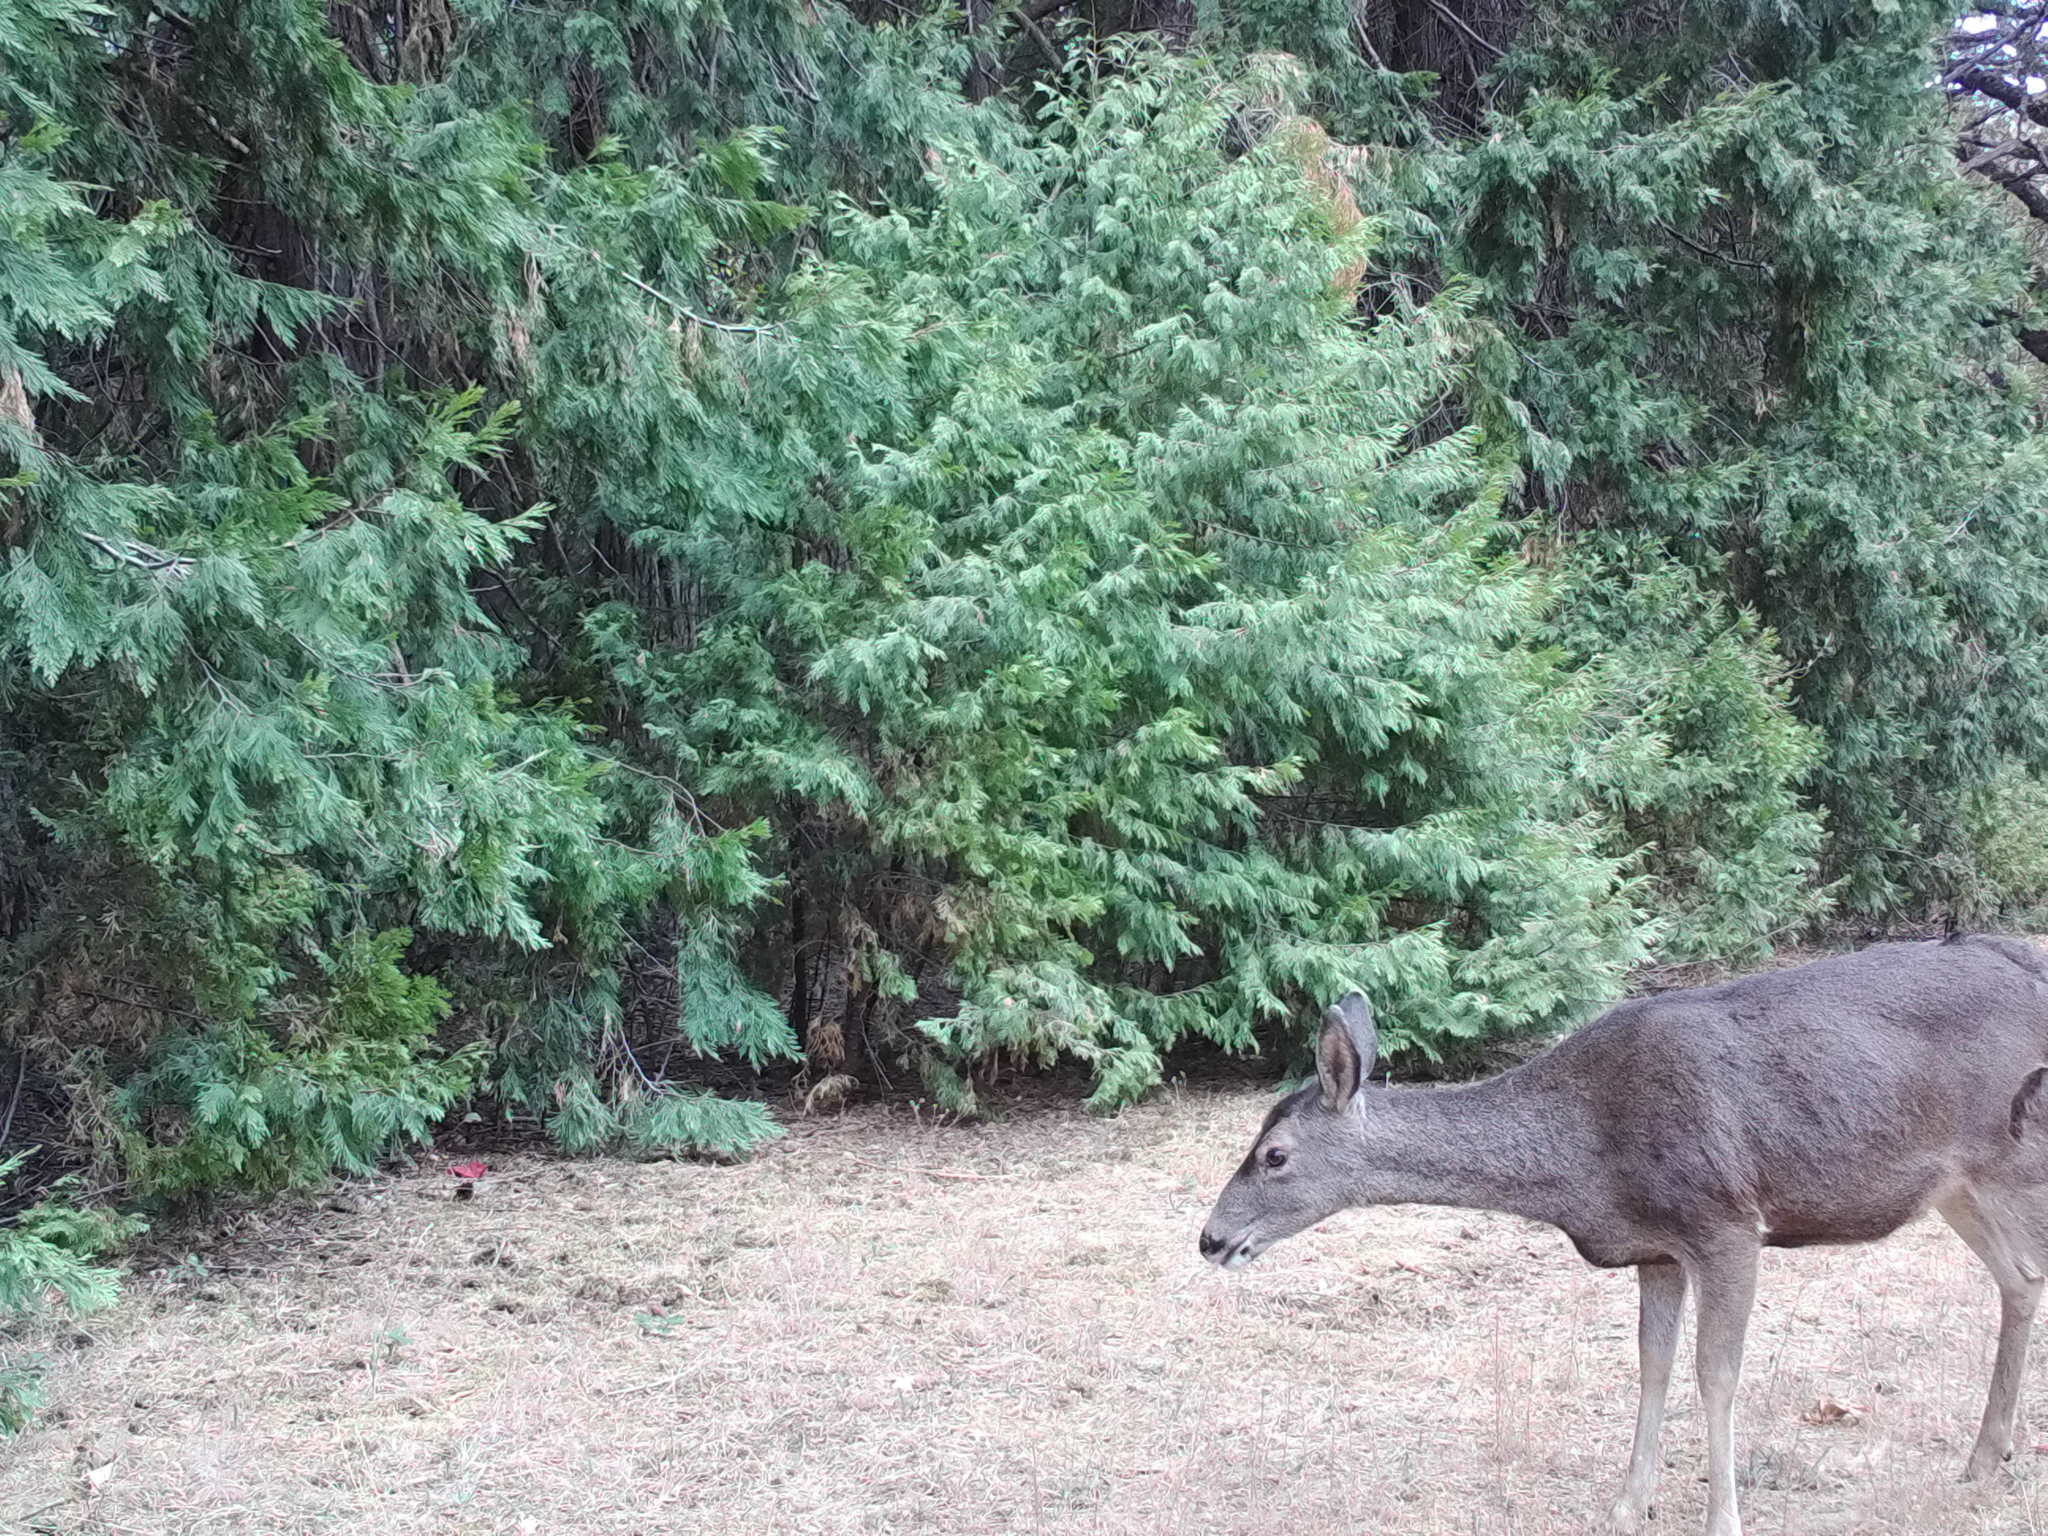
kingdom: Animalia
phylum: Chordata
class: Mammalia
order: Artiodactyla
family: Cervidae
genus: Odocoileus
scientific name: Odocoileus hemionus
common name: Mule deer
